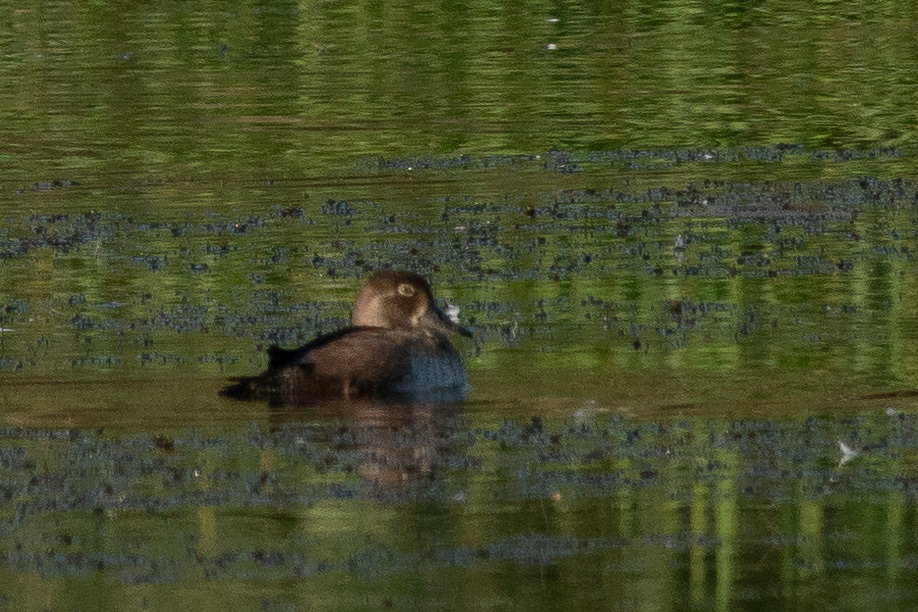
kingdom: Animalia
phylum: Chordata
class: Aves
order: Anseriformes
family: Anatidae
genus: Aythya
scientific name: Aythya collaris
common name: Ring-necked duck
